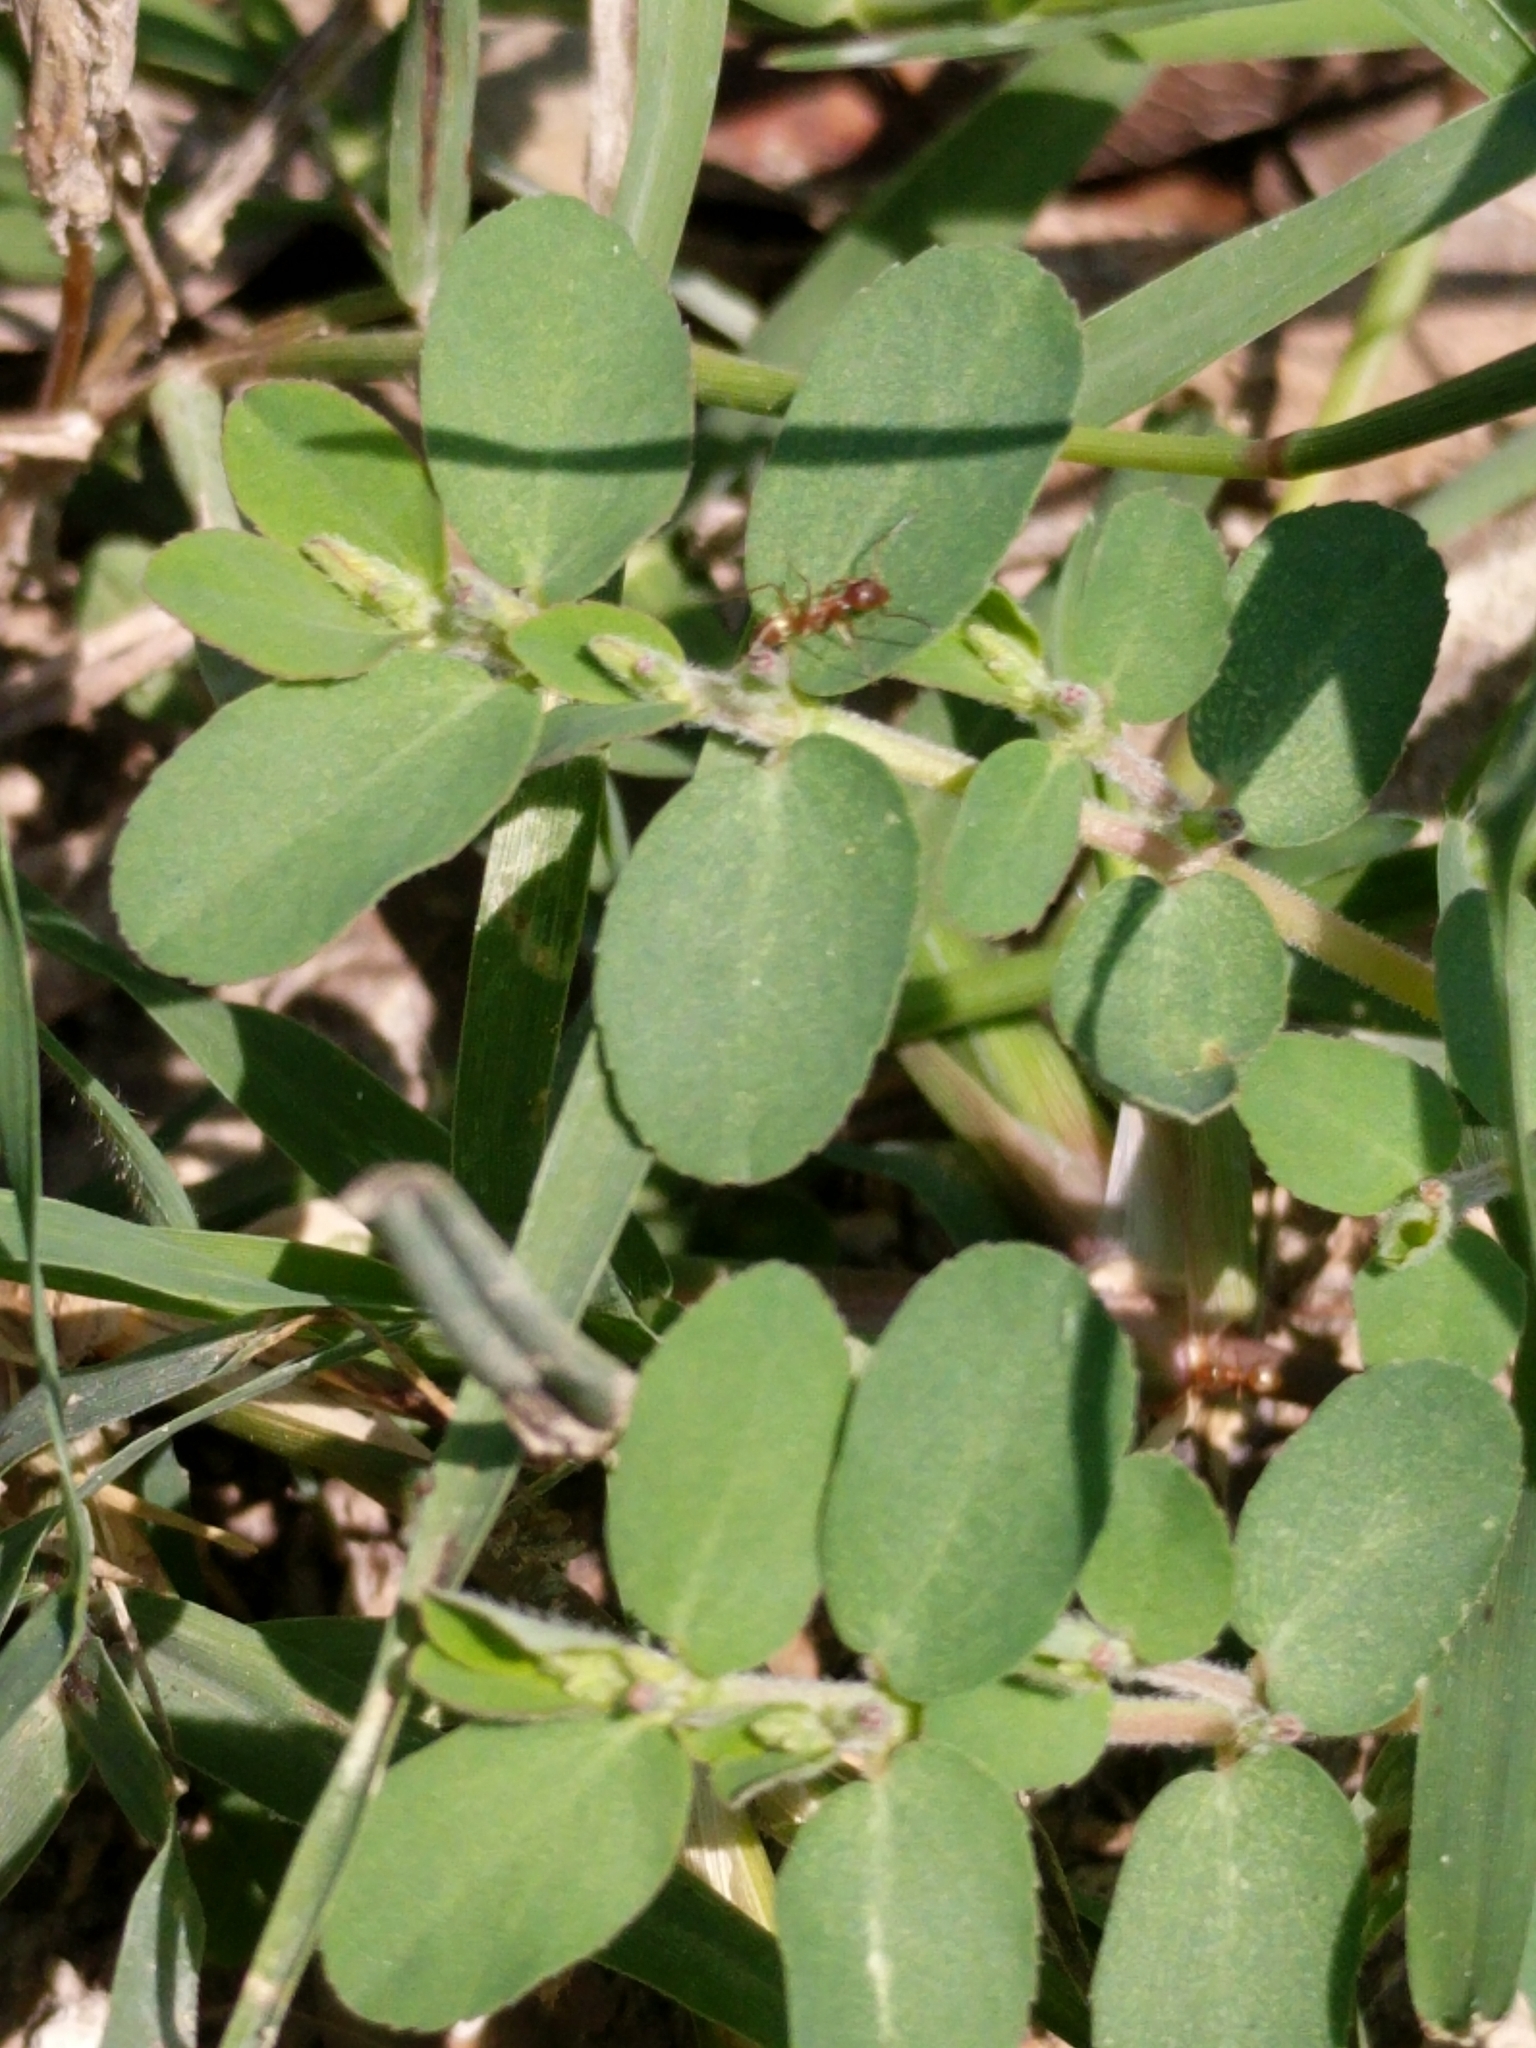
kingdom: Plantae
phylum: Tracheophyta
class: Magnoliopsida
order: Malpighiales
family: Euphorbiaceae
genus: Euphorbia
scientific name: Euphorbia prostrata
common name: Prostrate sandmat
